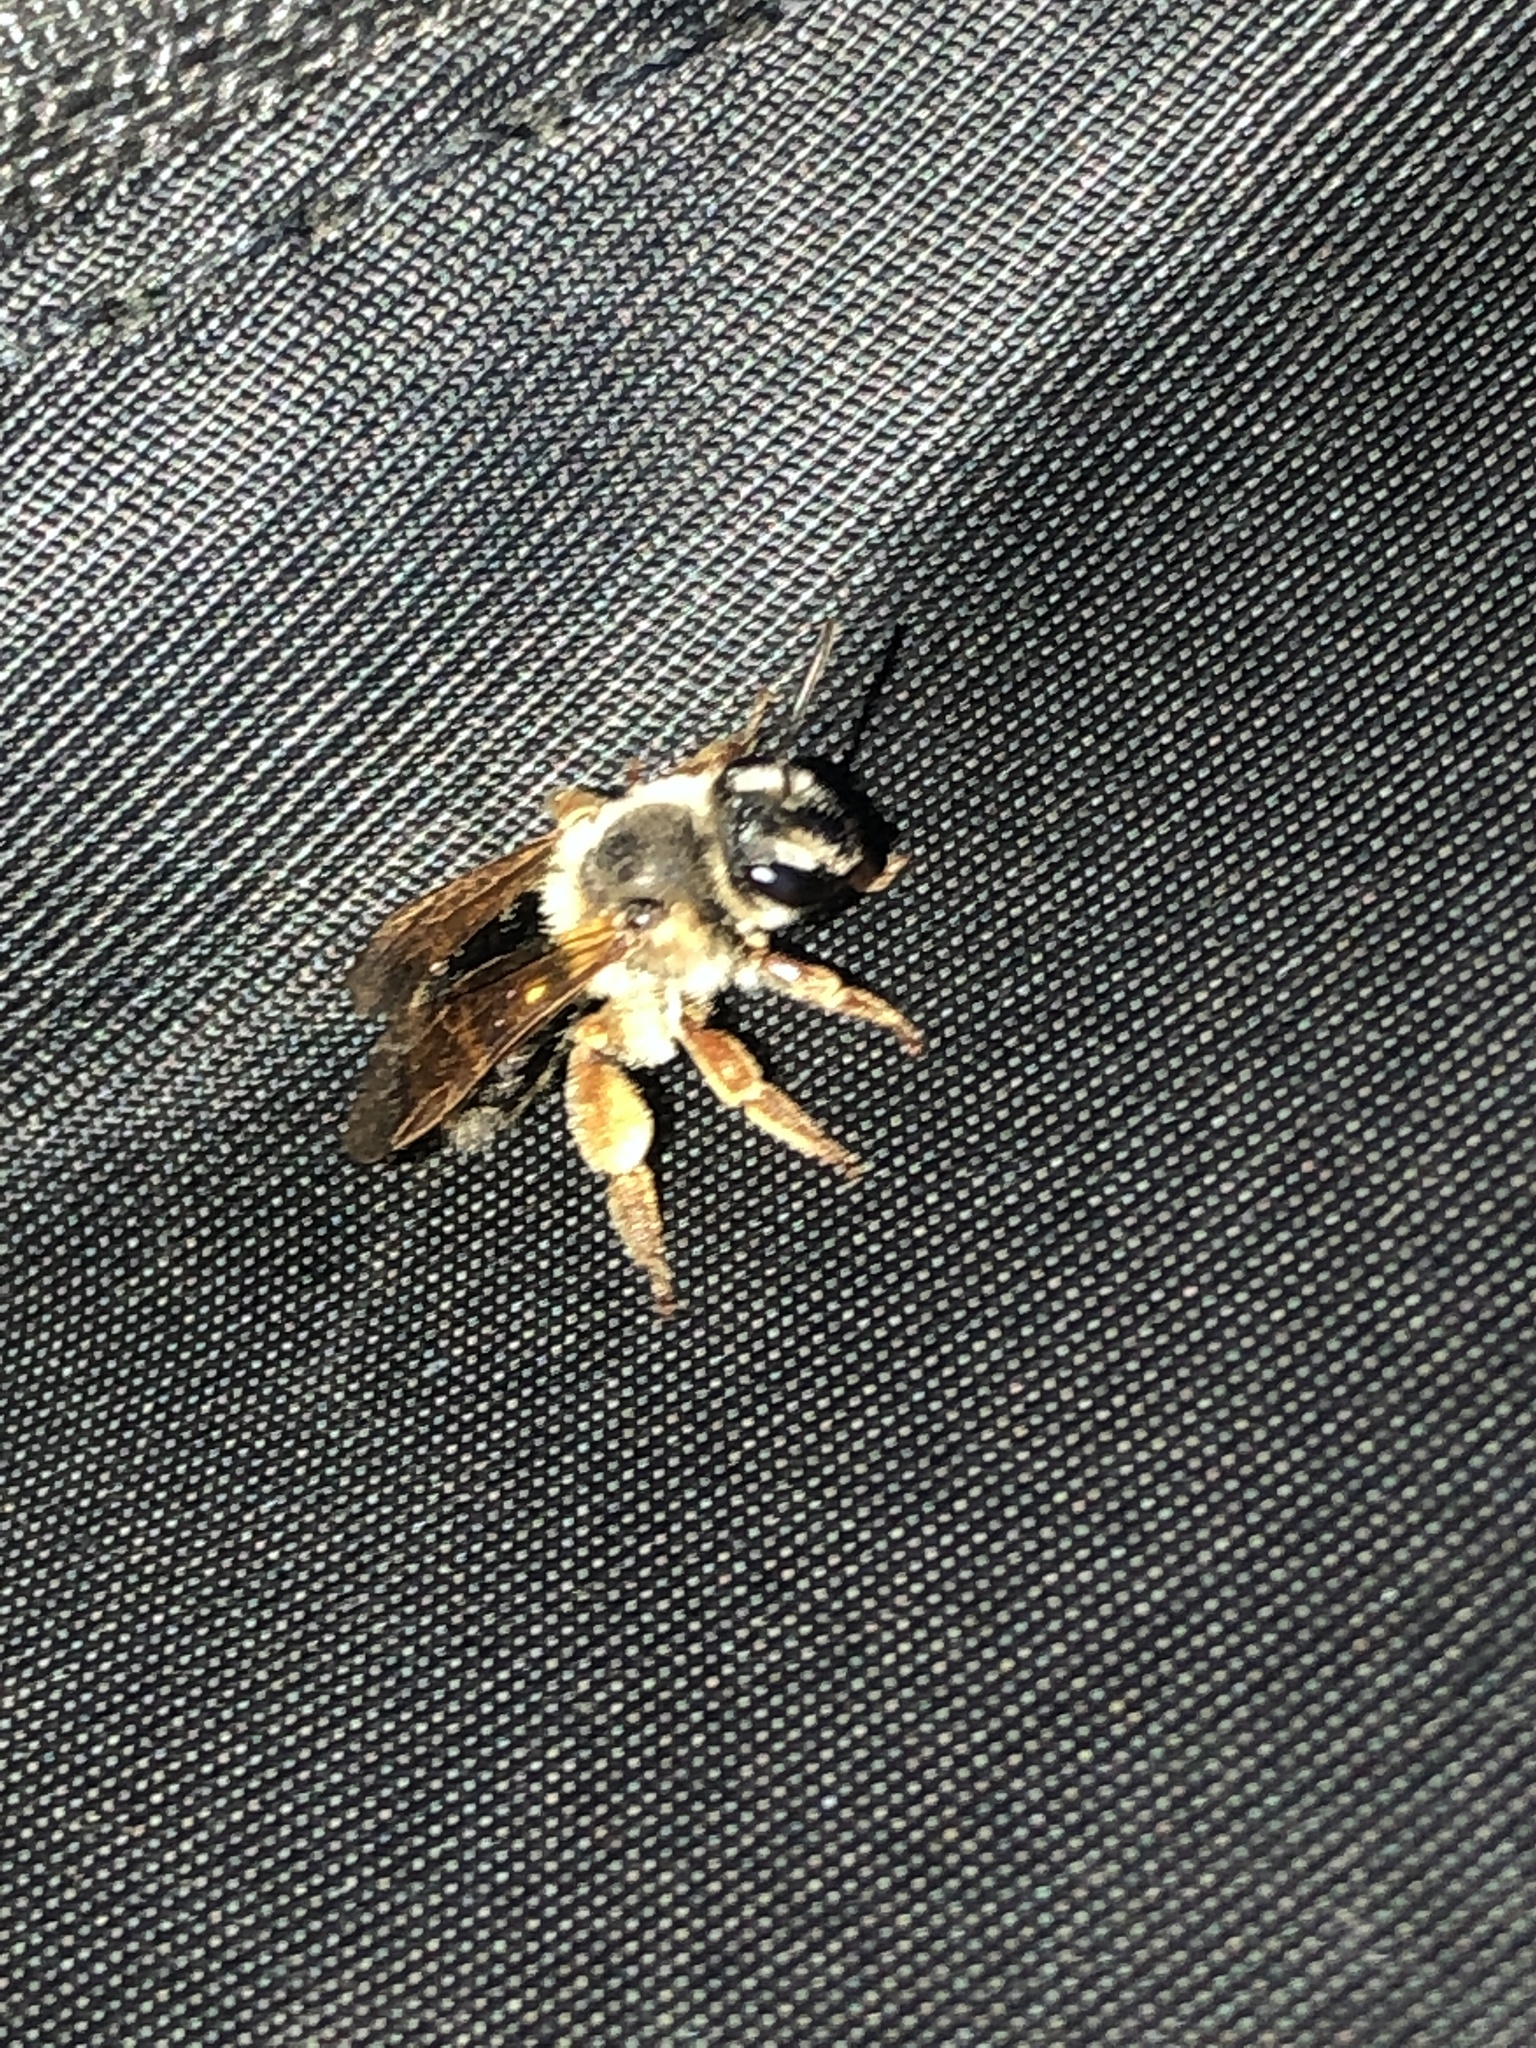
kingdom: Animalia
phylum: Arthropoda
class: Insecta
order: Hymenoptera
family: Andrenidae
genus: Andrena
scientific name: Andrena prunorum
